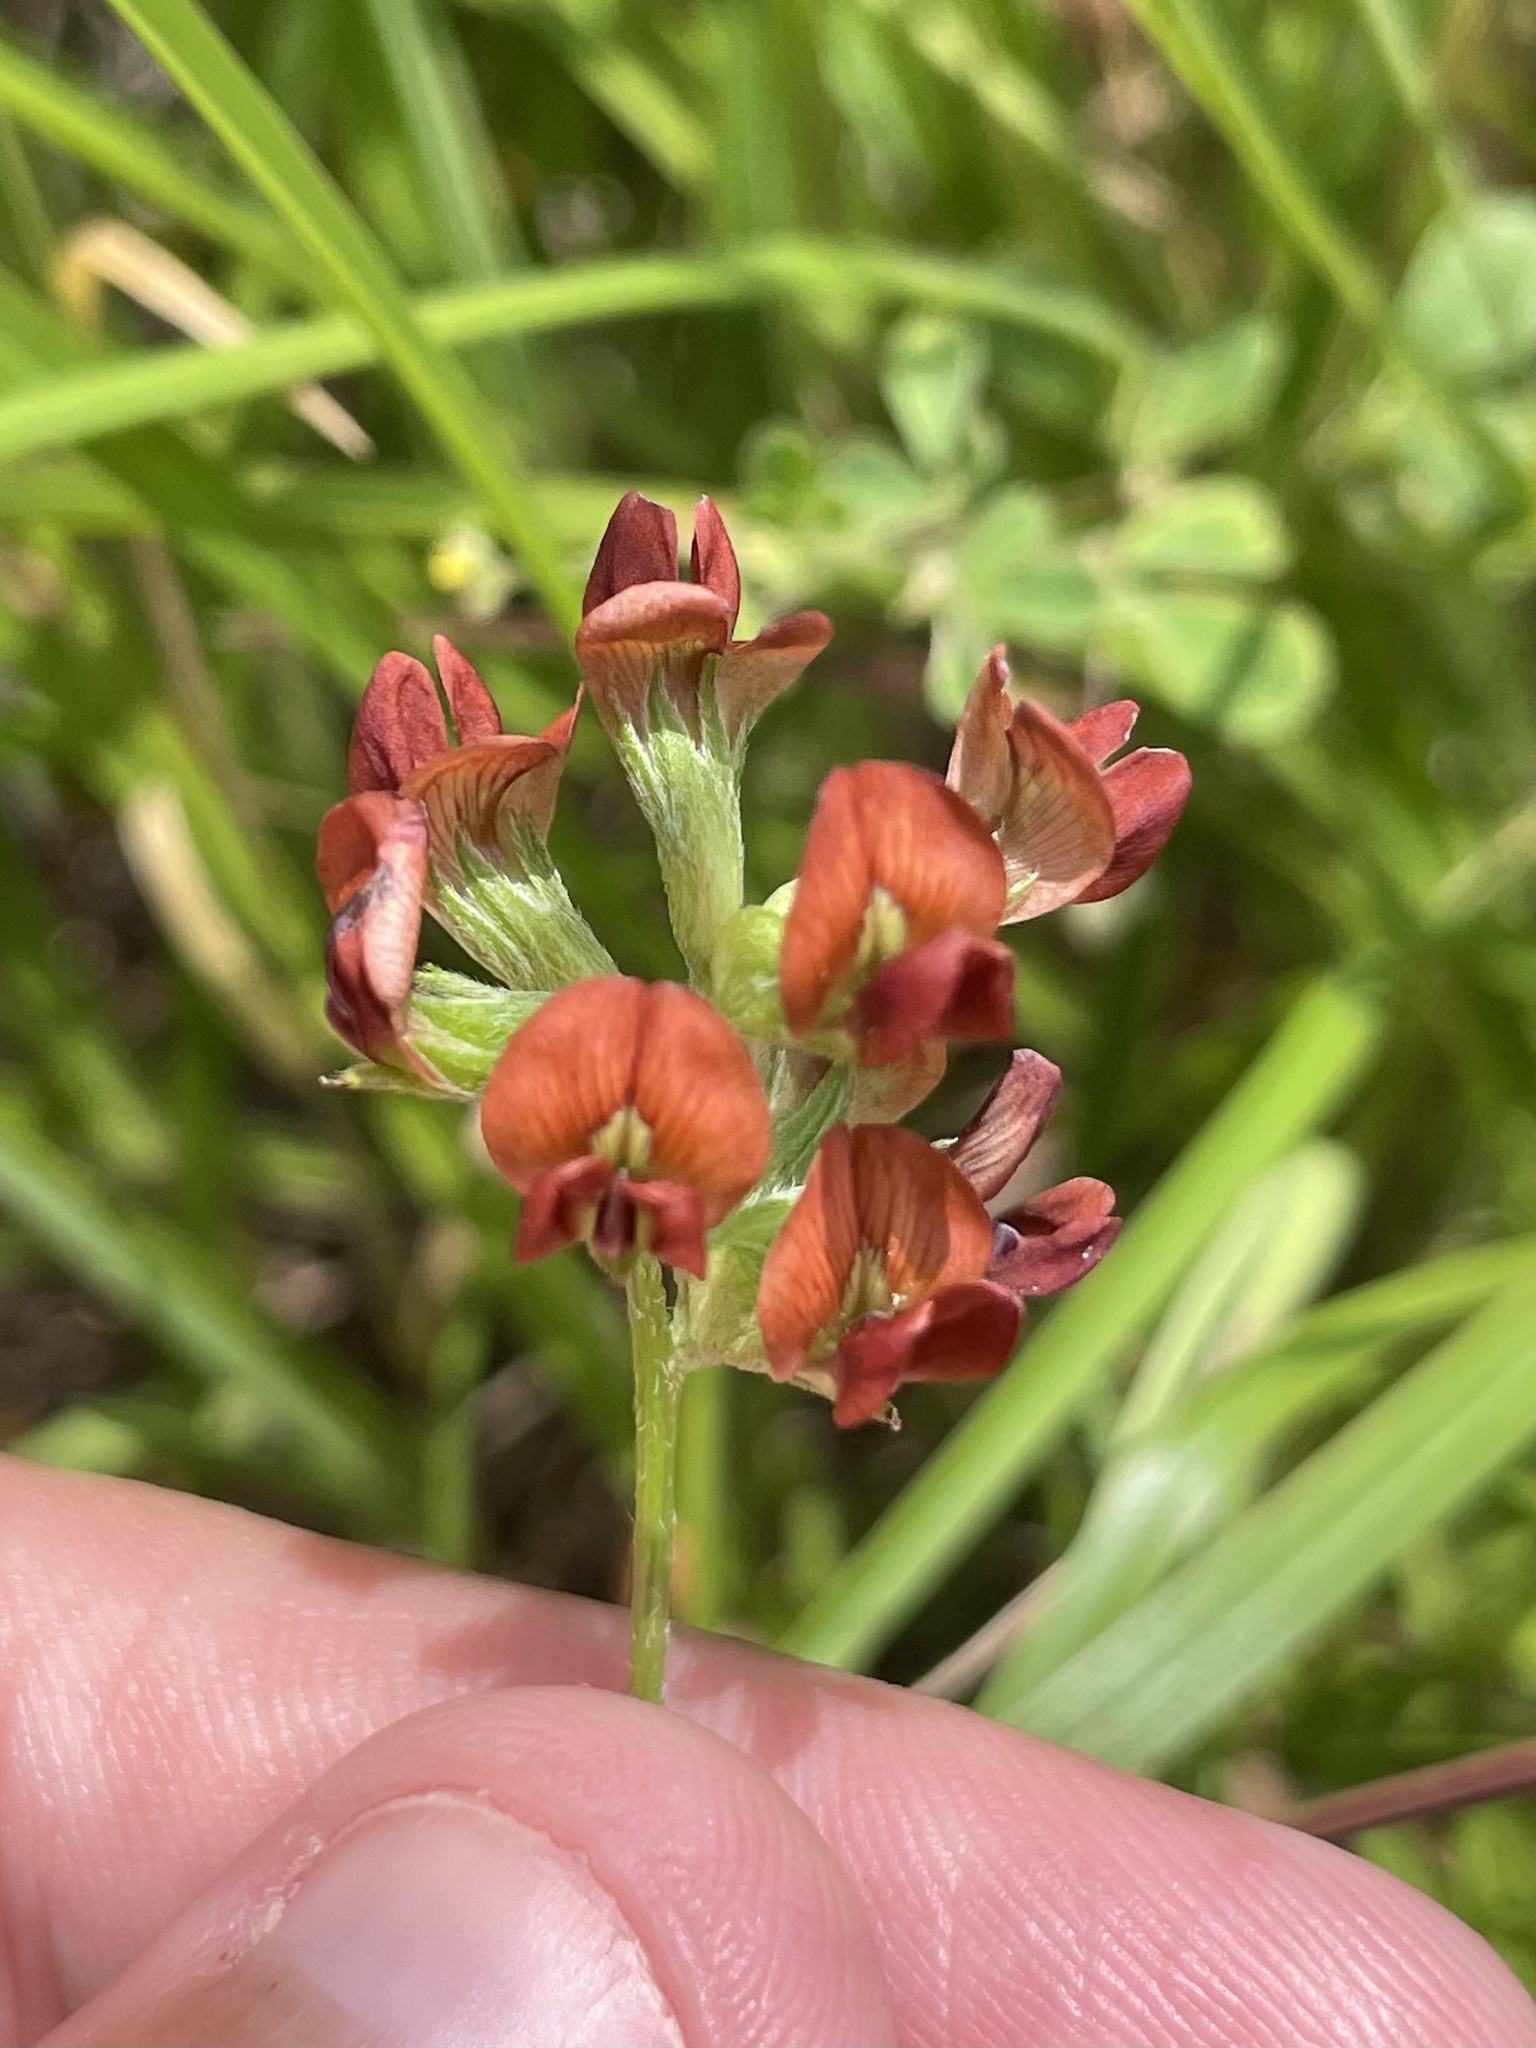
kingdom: Plantae
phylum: Tracheophyta
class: Magnoliopsida
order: Fabales
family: Fabaceae
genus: Pediomelum
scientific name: Pediomelum rhombifolium
